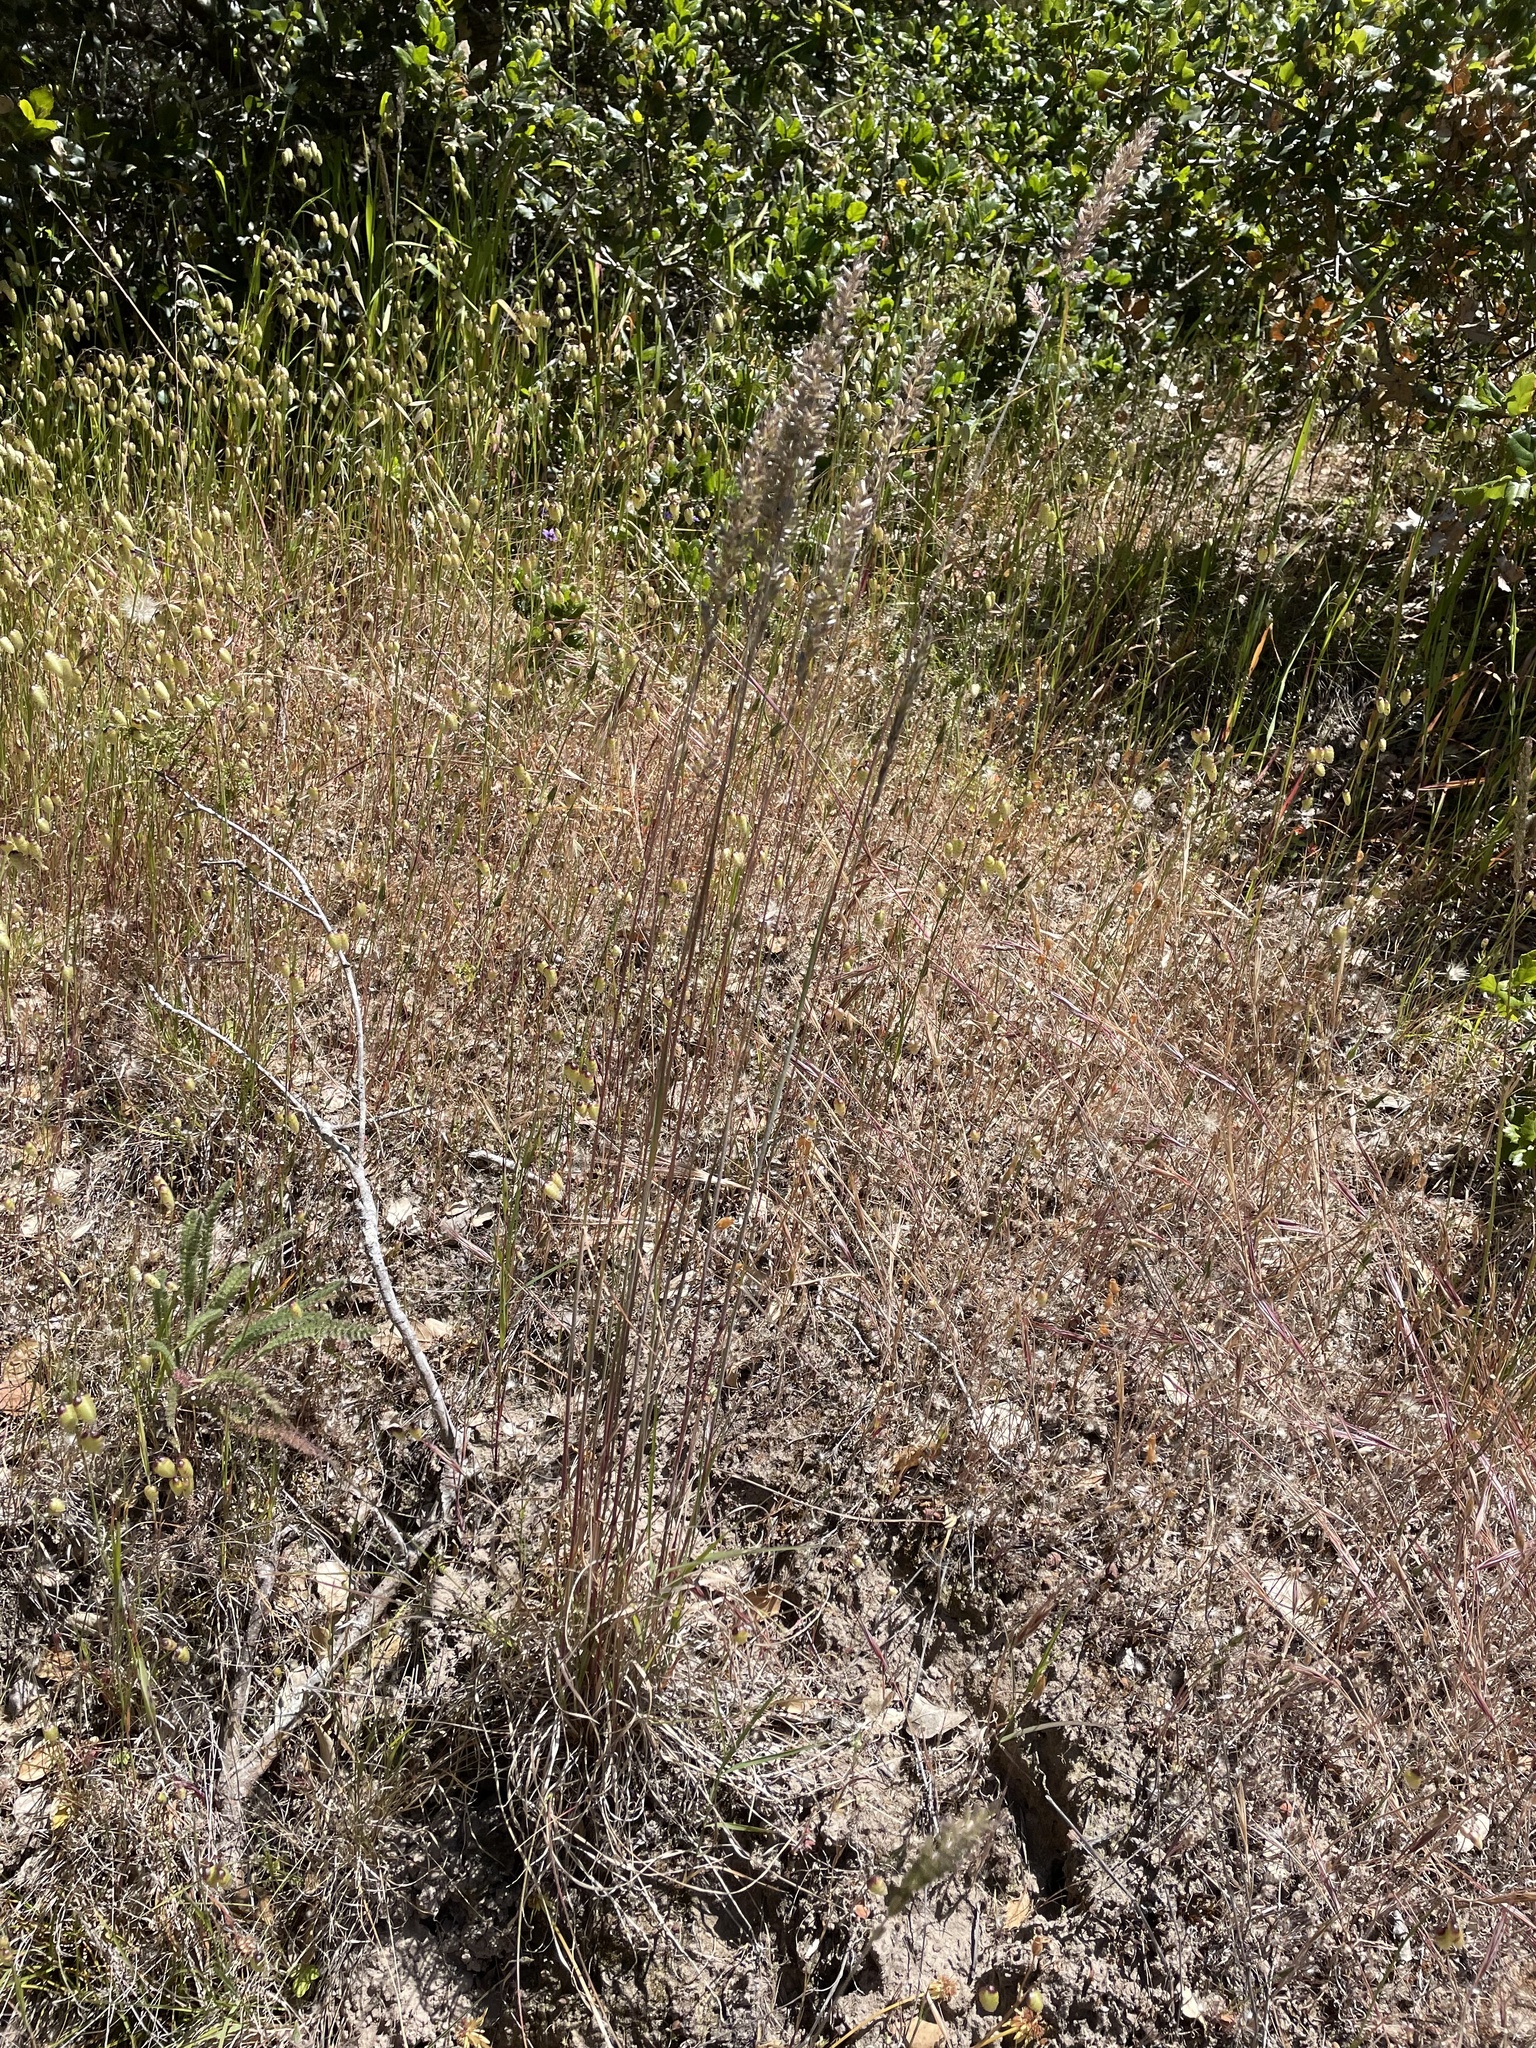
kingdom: Plantae
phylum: Tracheophyta
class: Liliopsida
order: Poales
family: Poaceae
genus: Koeleria
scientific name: Koeleria macrantha
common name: Crested hair-grass
